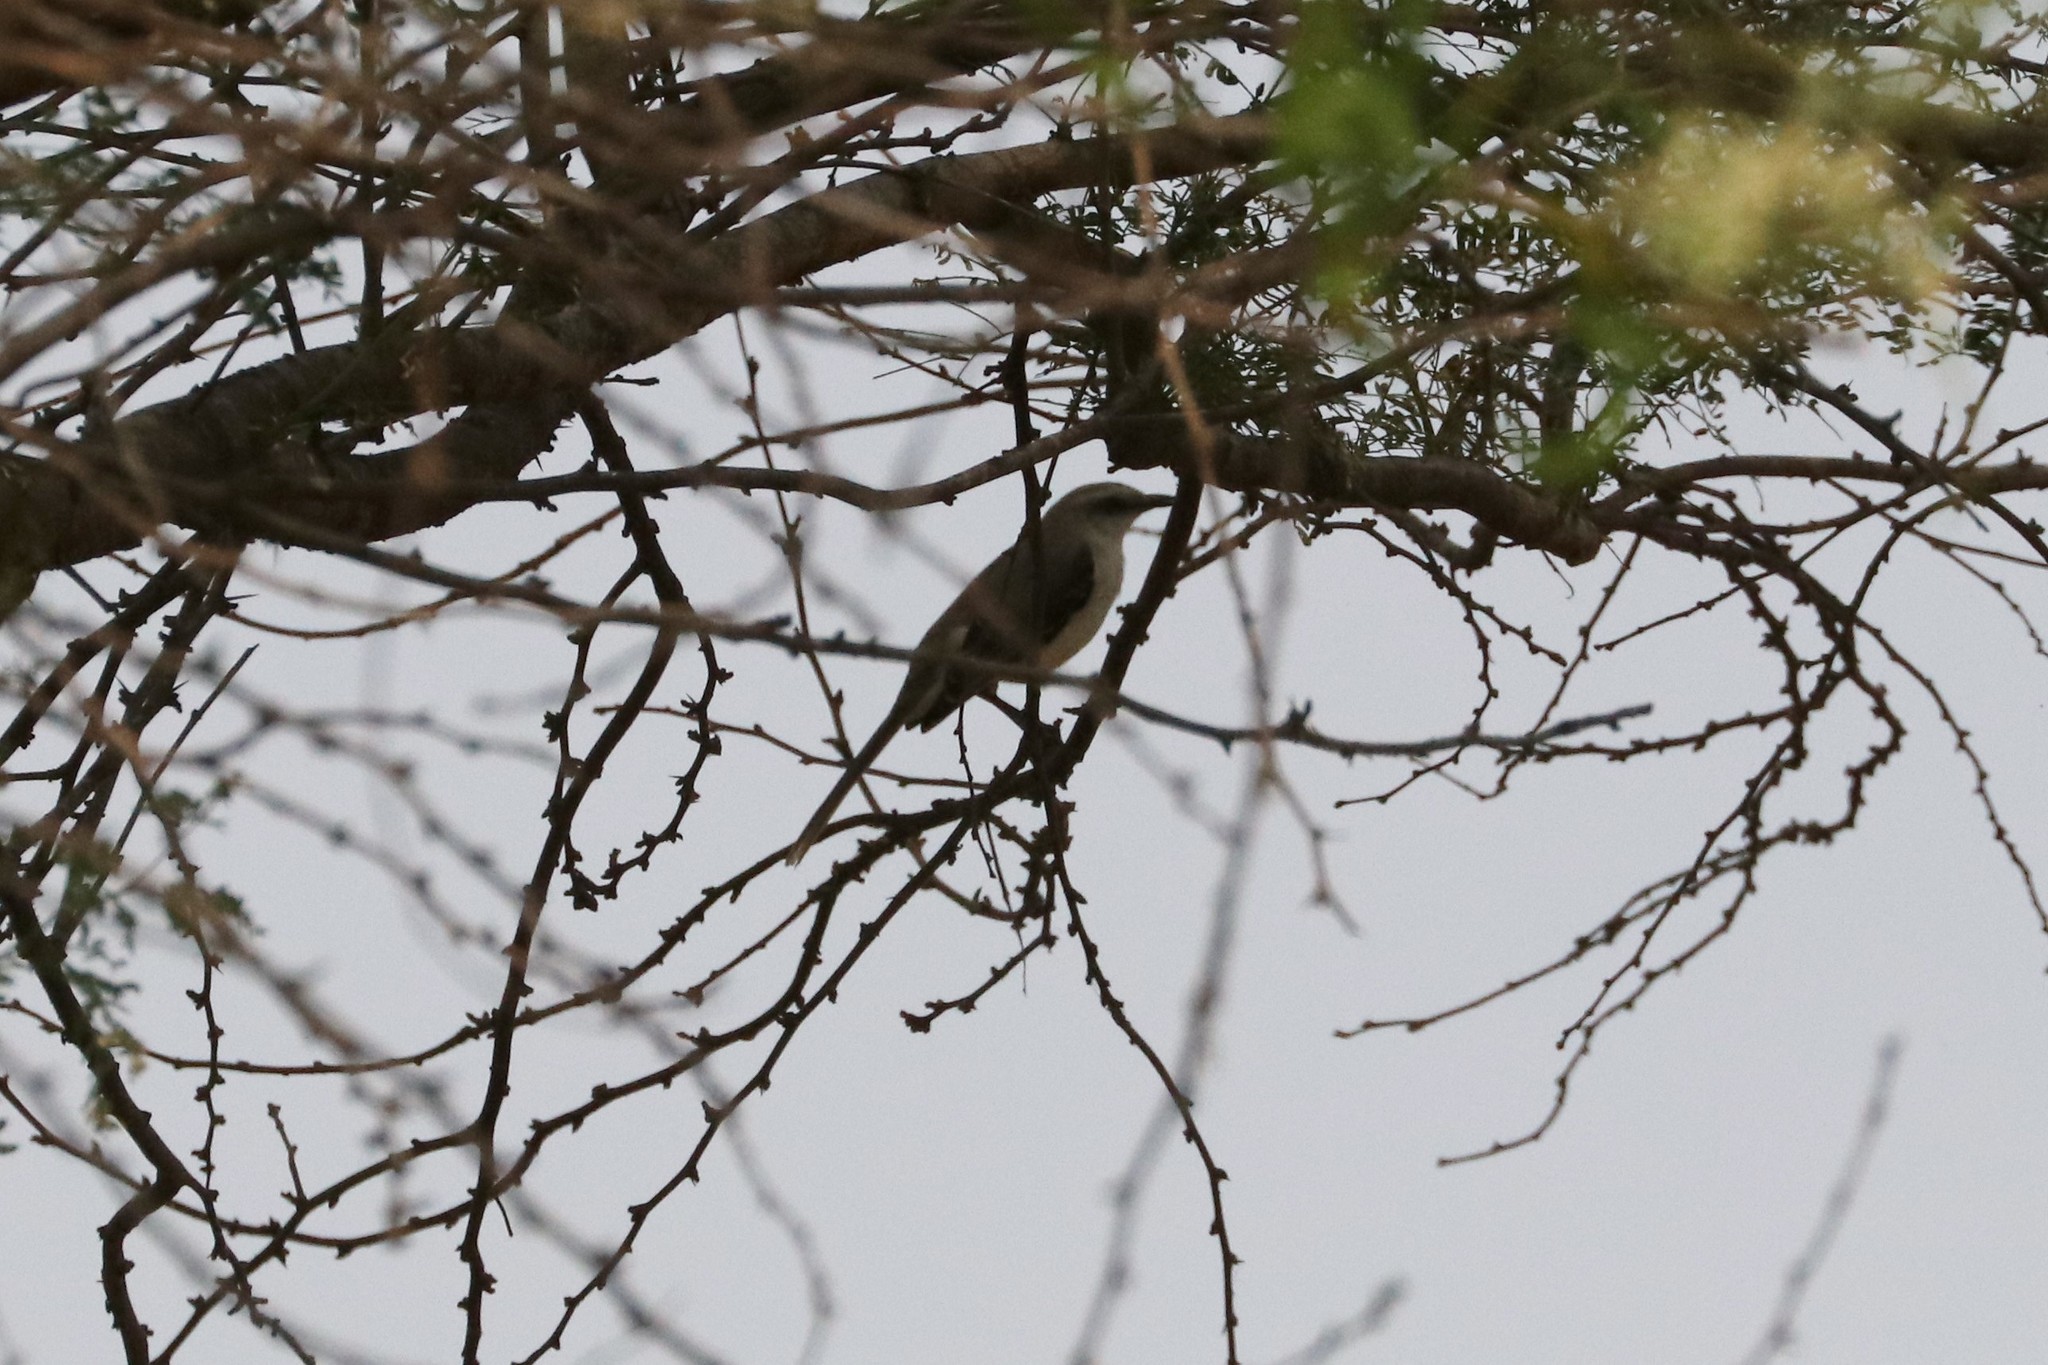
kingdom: Animalia
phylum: Chordata
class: Aves
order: Passeriformes
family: Troglodytidae
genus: Campylorhynchus
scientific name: Campylorhynchus griseus
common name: Bicolored wren
